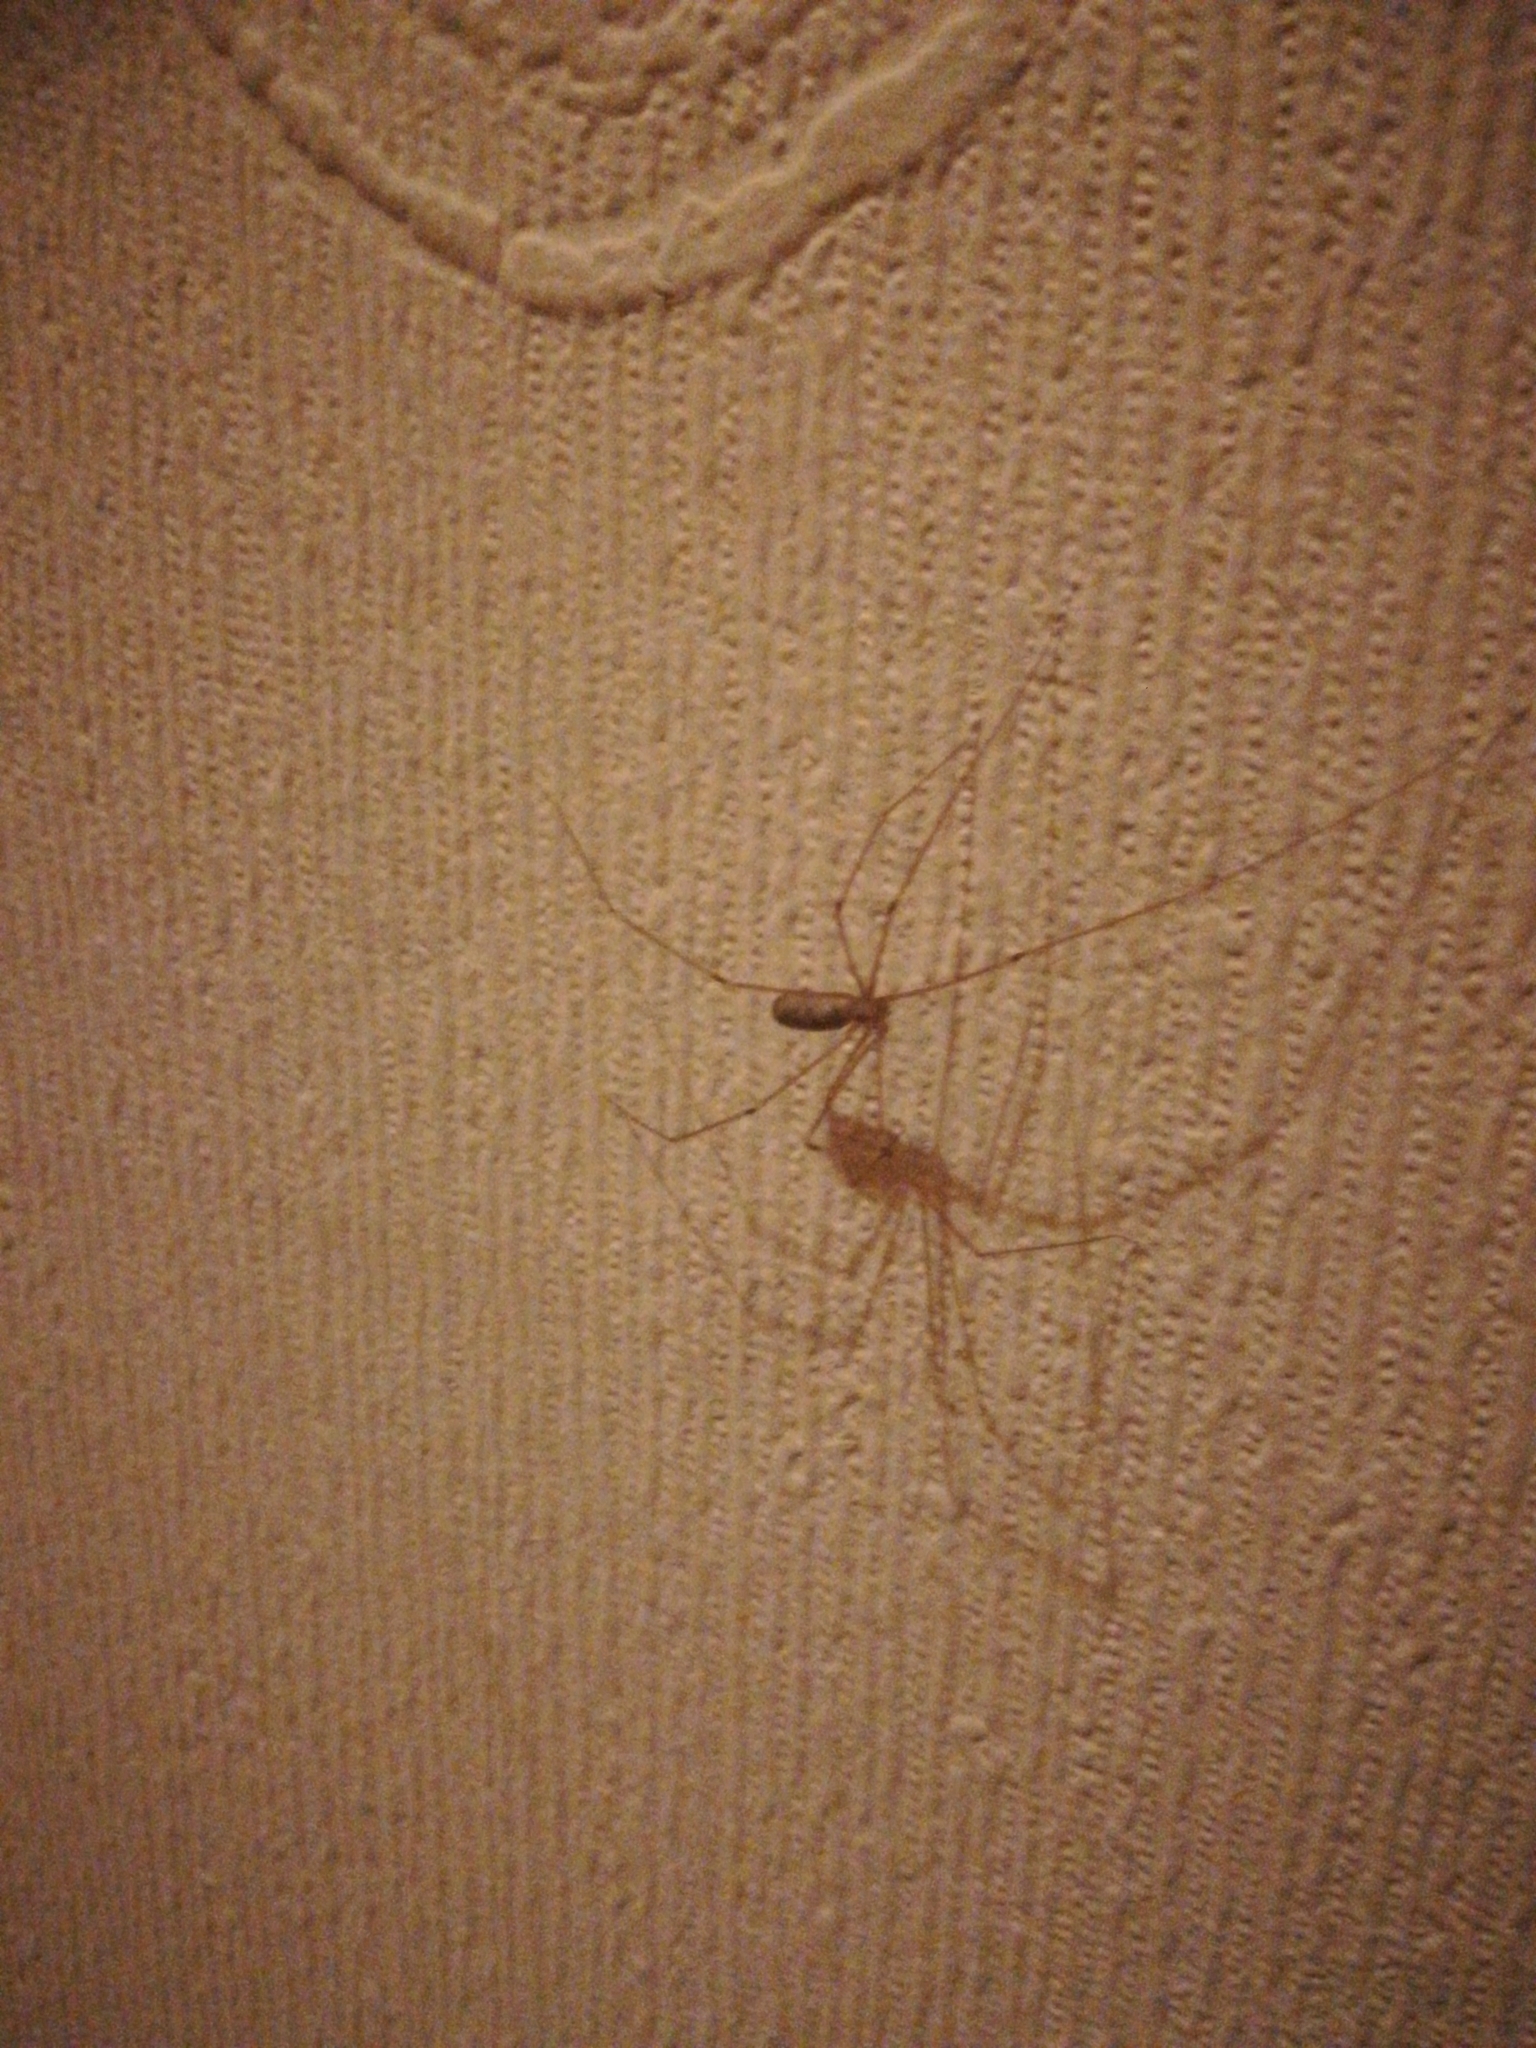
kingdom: Animalia
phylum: Arthropoda
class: Arachnida
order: Araneae
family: Pholcidae
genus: Pholcus
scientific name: Pholcus phalangioides
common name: Longbodied cellar spider
